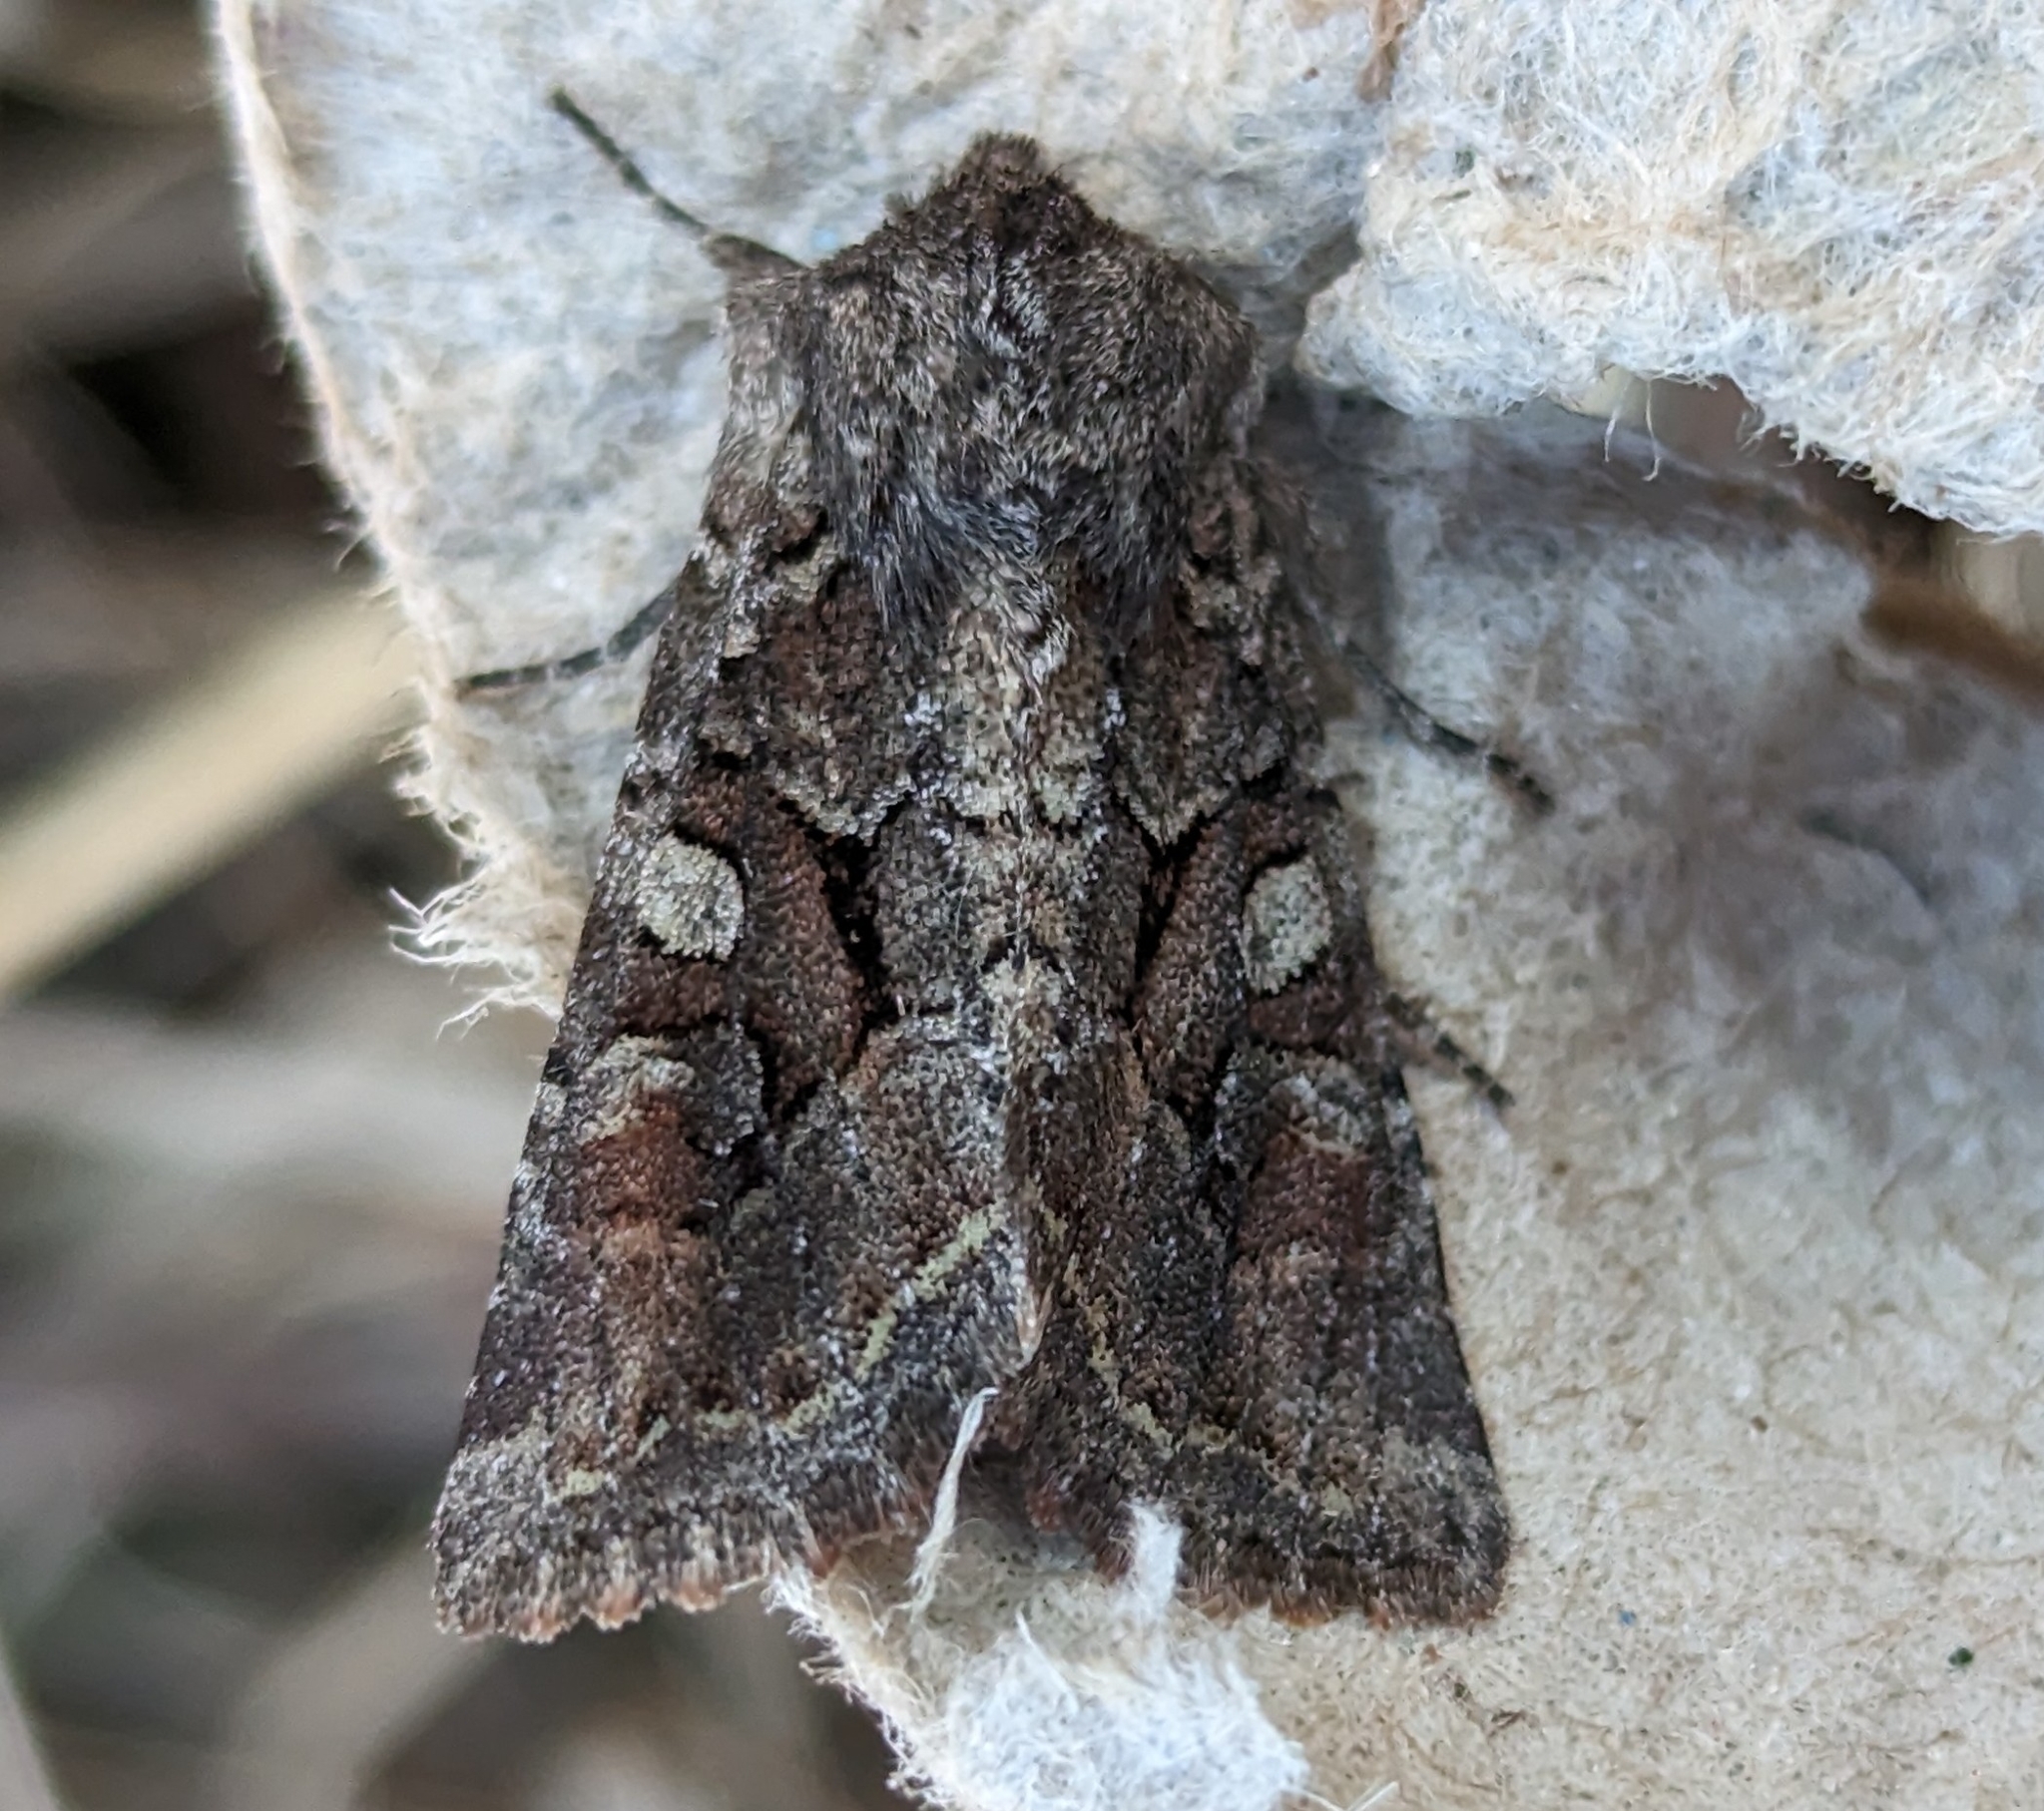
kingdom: Animalia
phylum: Arthropoda
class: Insecta
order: Lepidoptera
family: Noctuidae
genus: Orthosia
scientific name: Orthosia segregata
